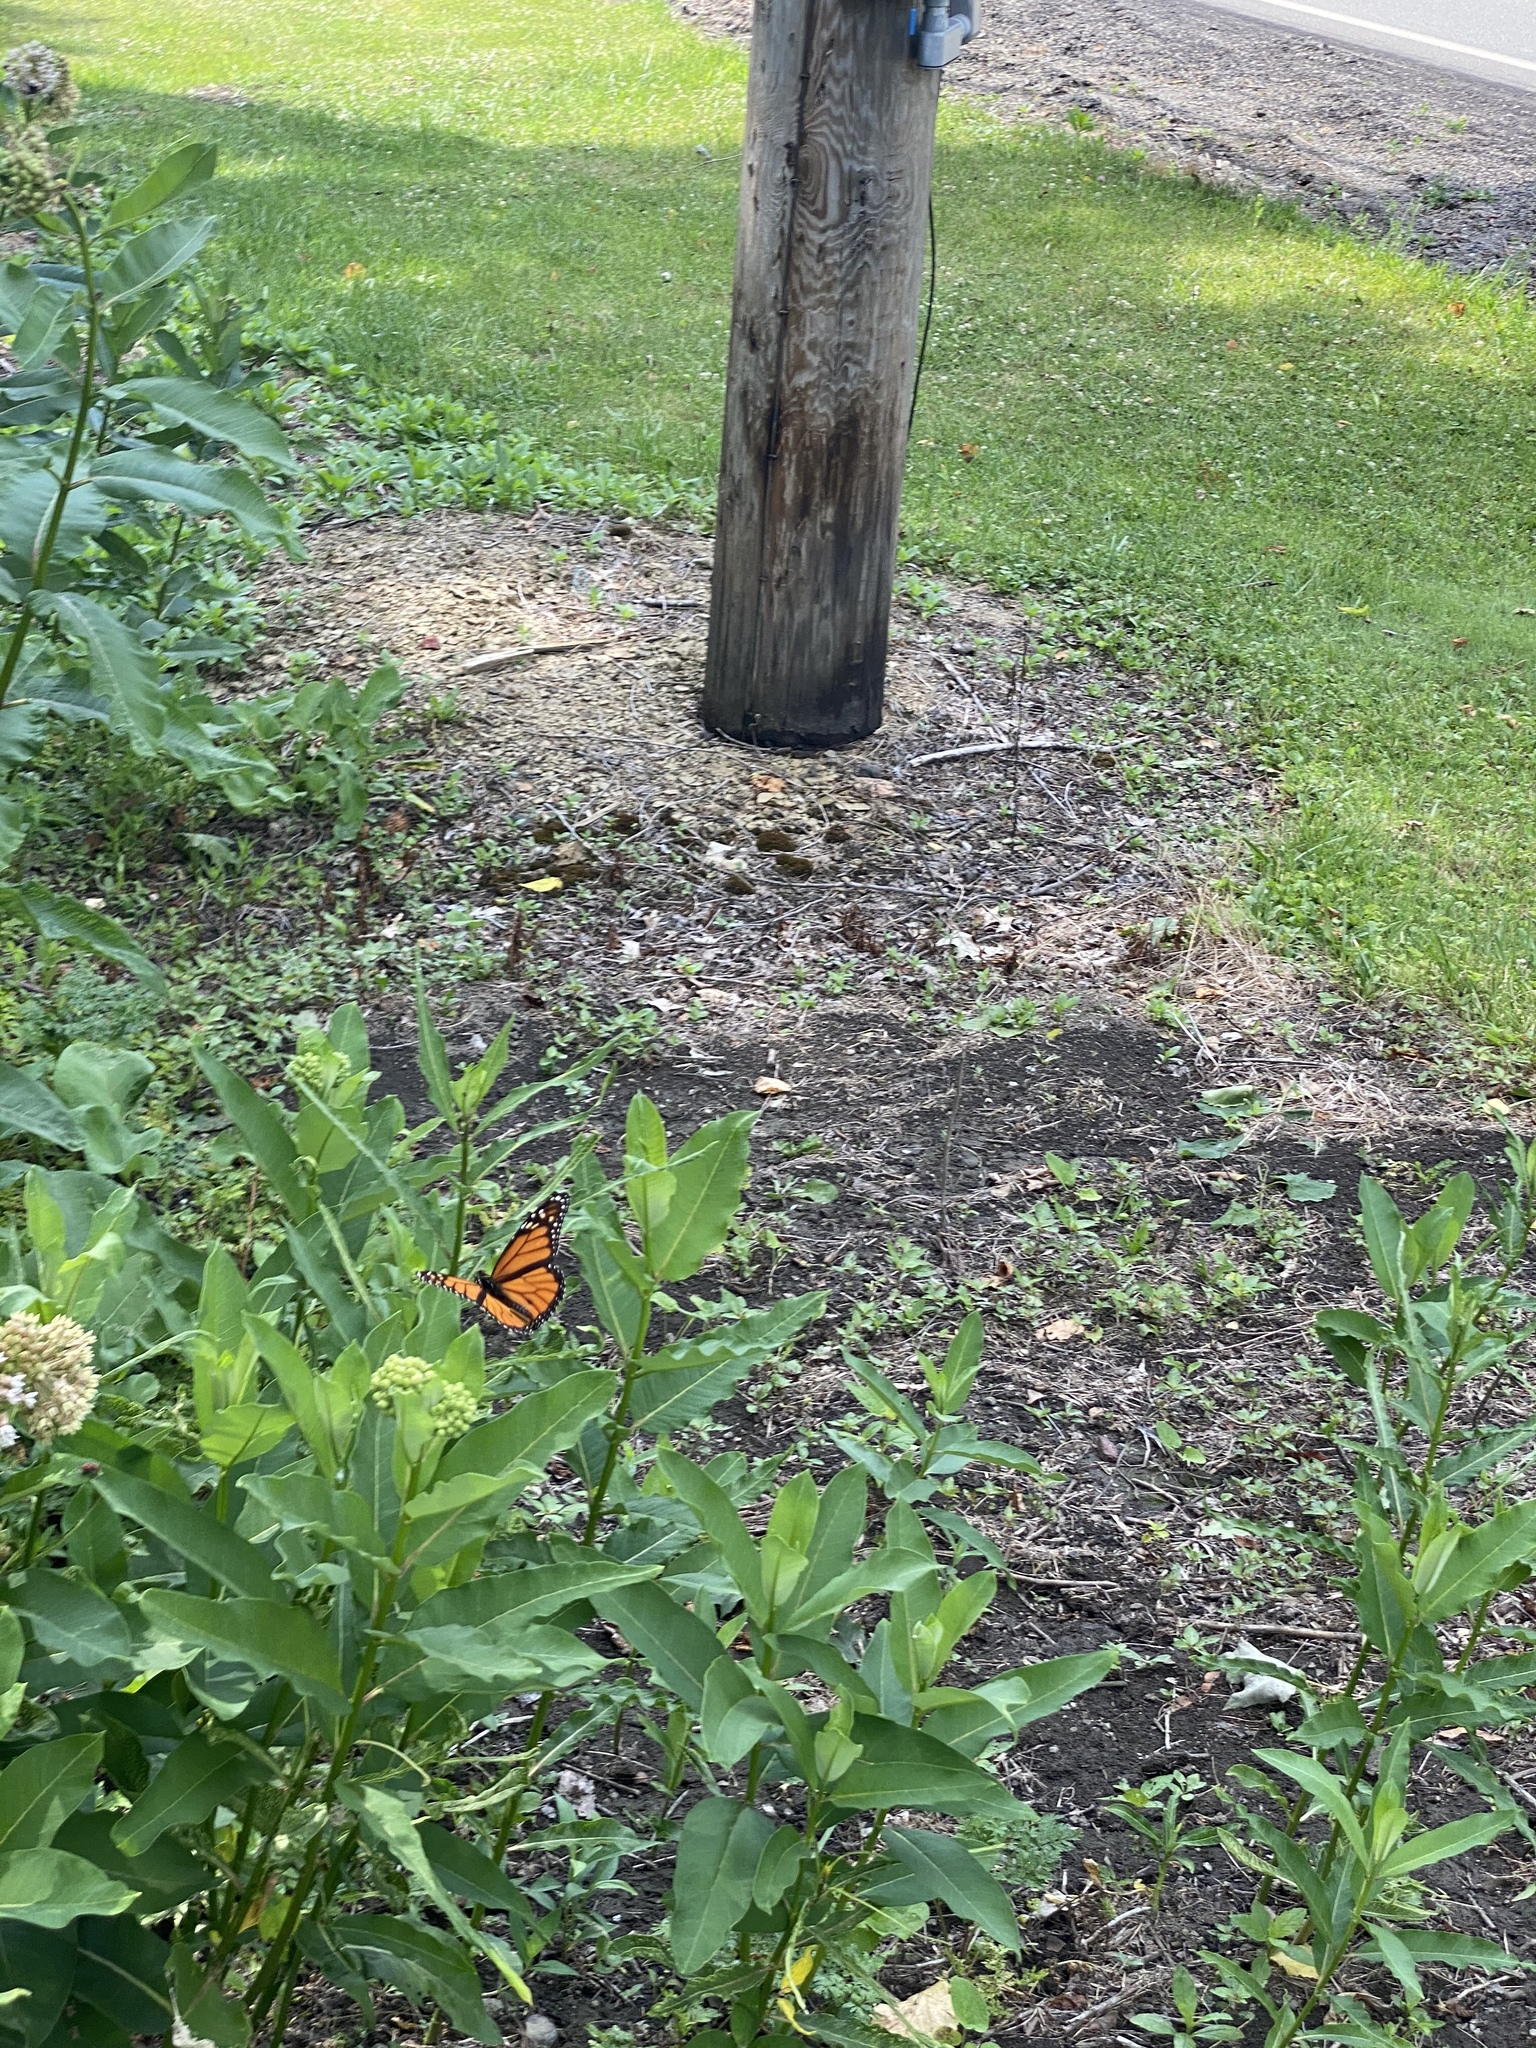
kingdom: Animalia
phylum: Arthropoda
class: Insecta
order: Lepidoptera
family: Nymphalidae
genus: Danaus
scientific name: Danaus plexippus
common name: Monarch
